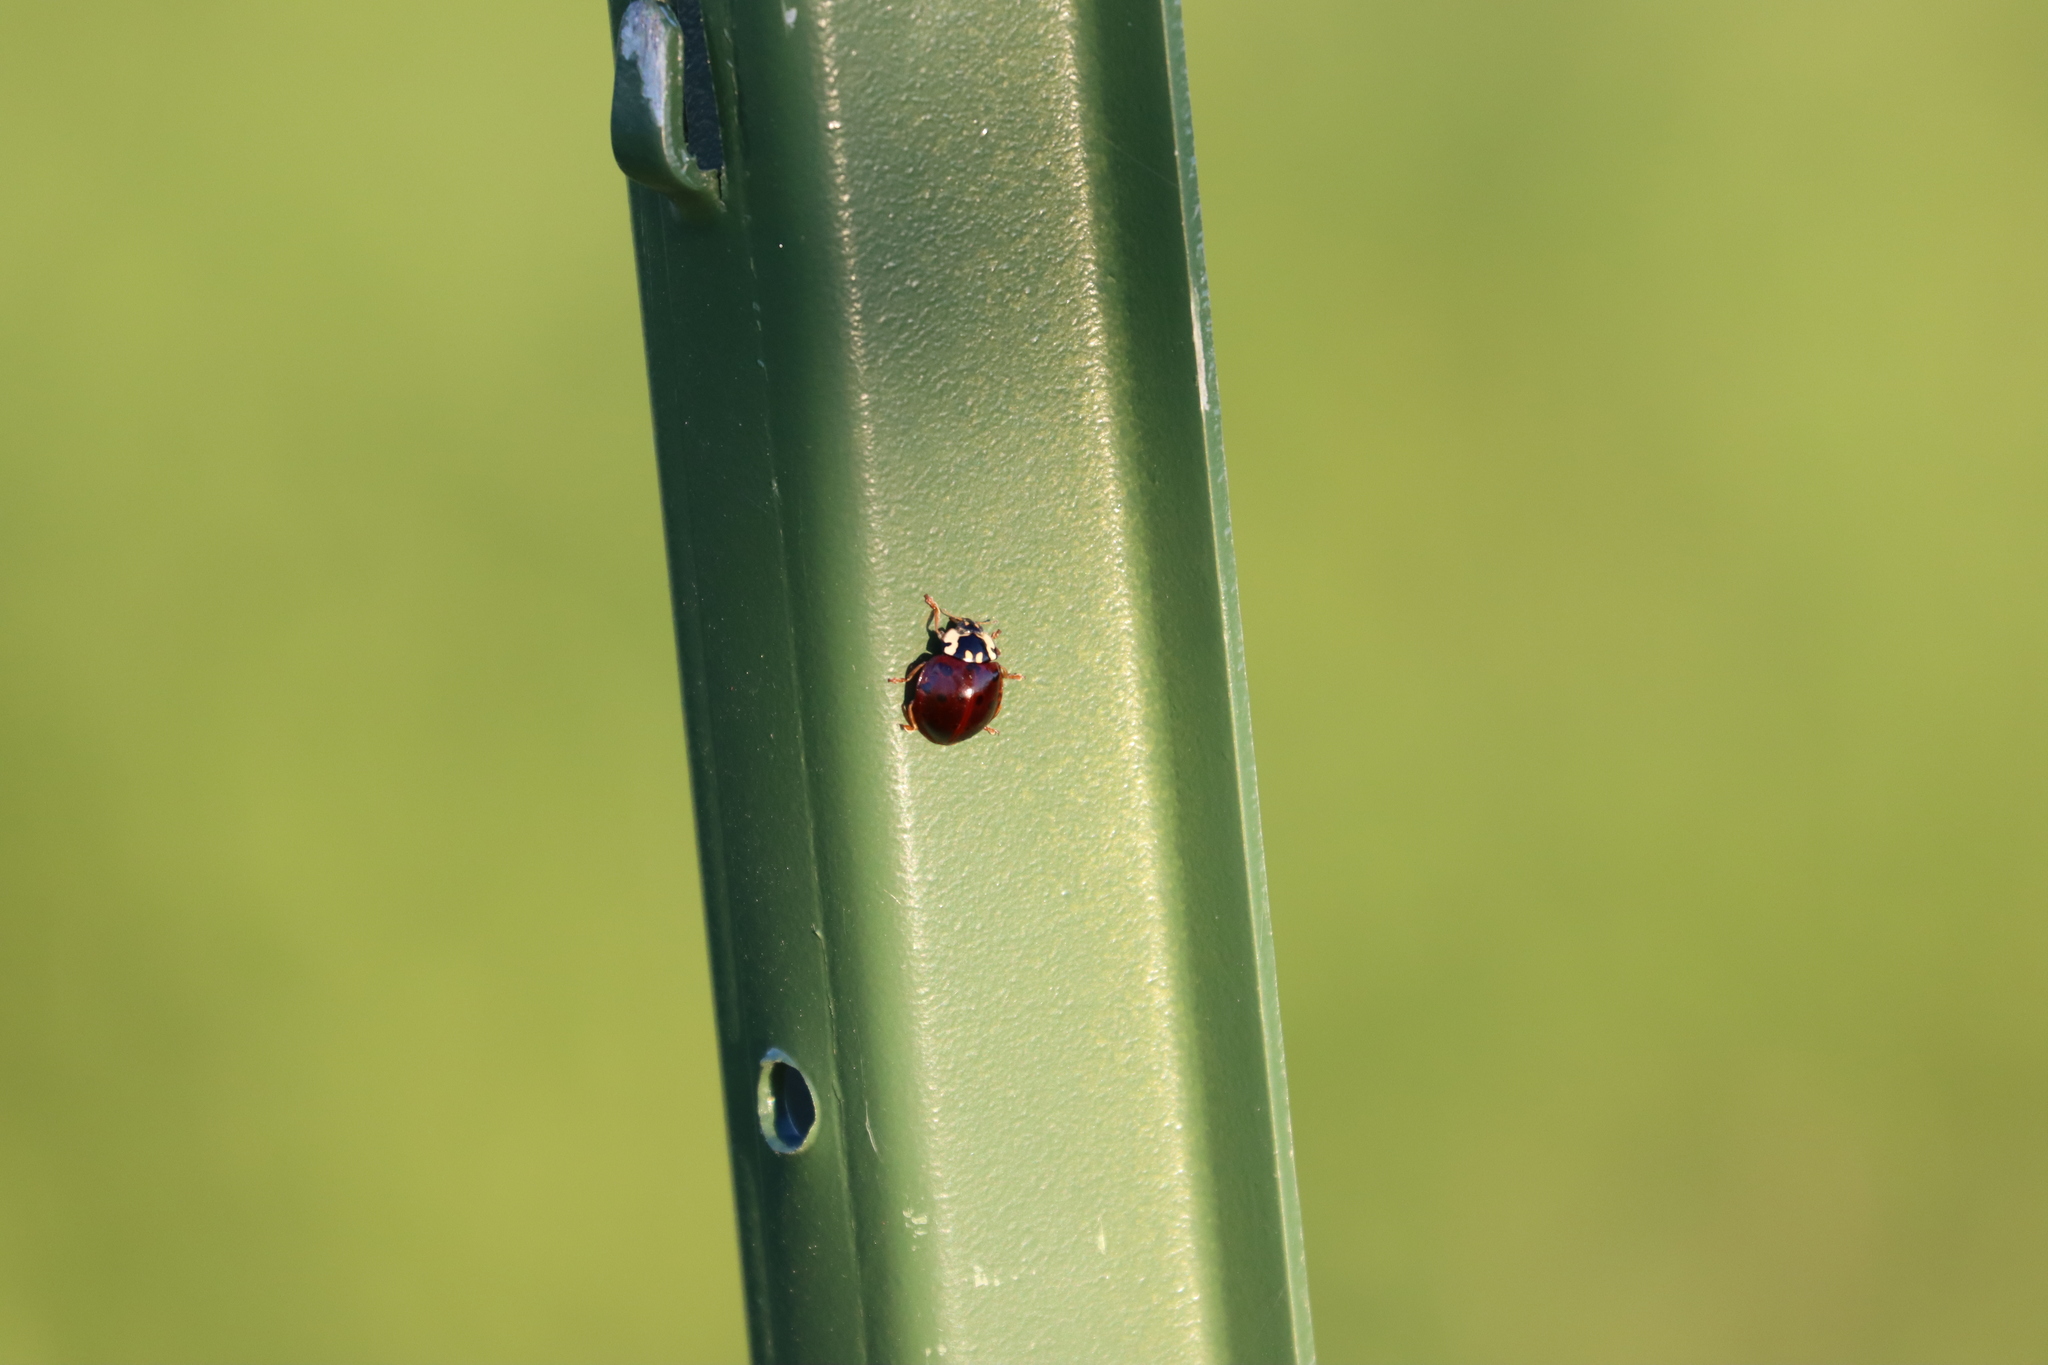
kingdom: Animalia
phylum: Arthropoda
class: Insecta
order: Coleoptera
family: Coccinellidae
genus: Anatis
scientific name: Anatis labiculata
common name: Fifteen-spotted lady beetle
